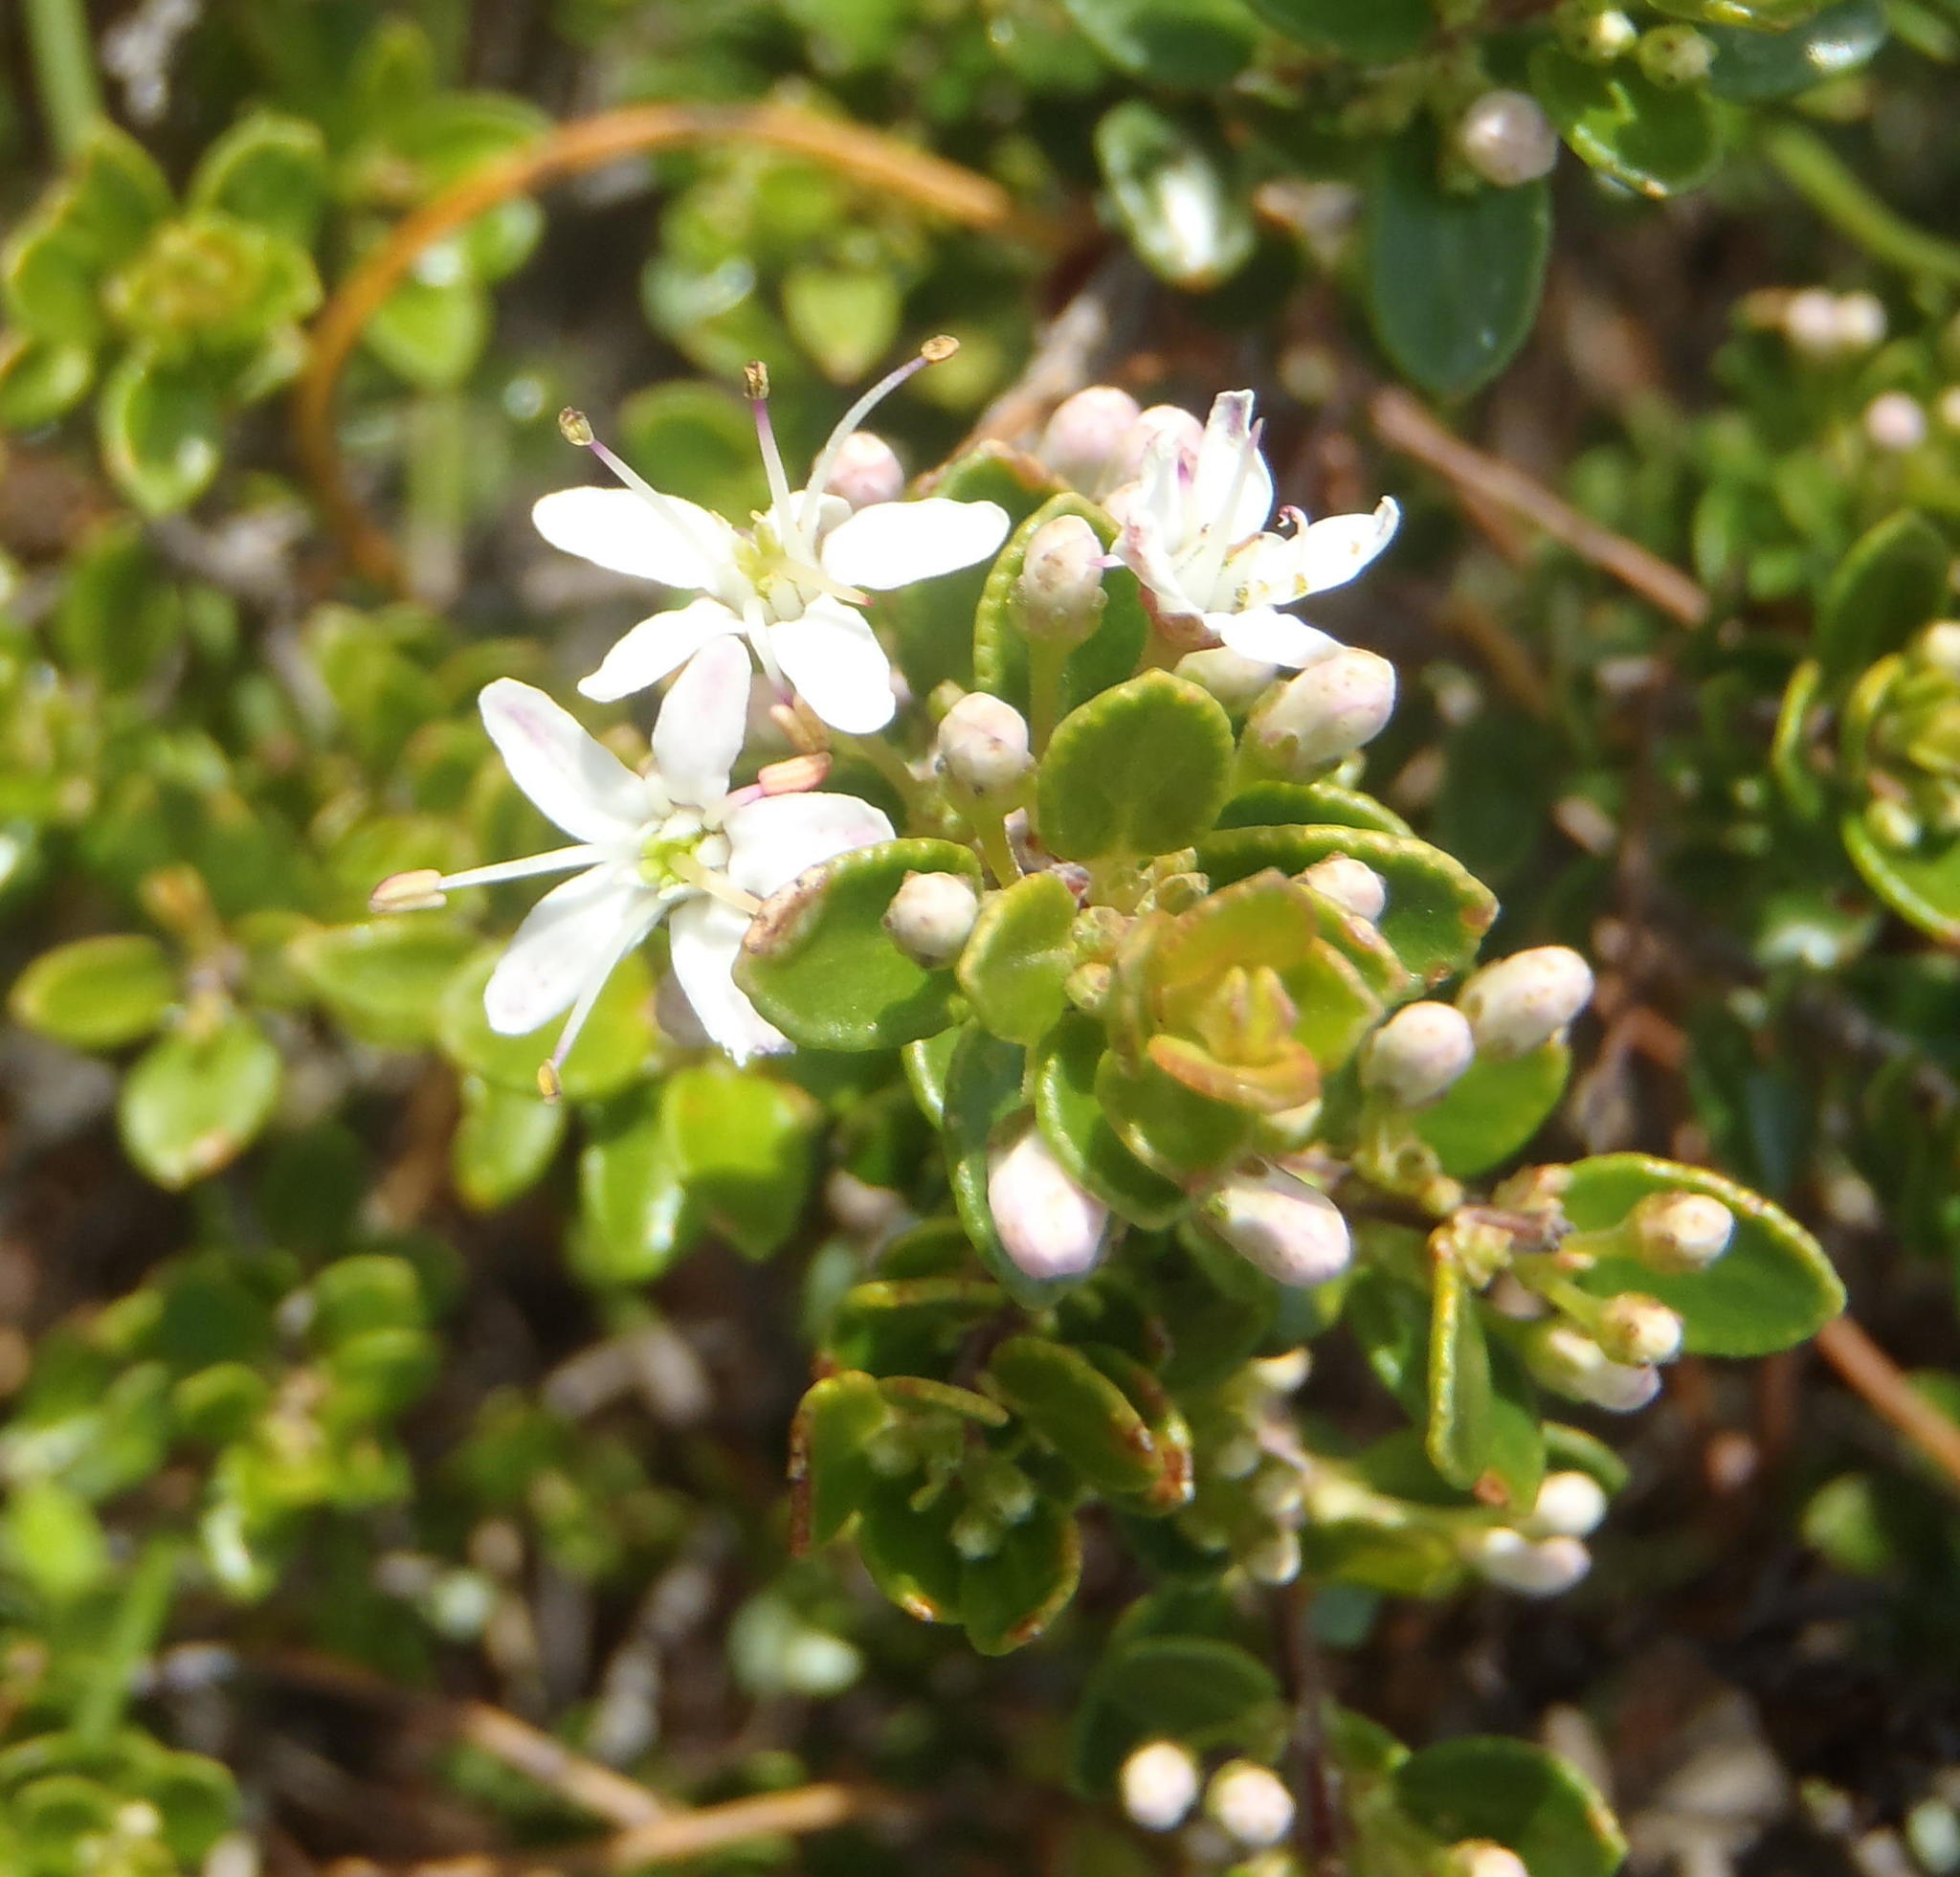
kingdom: Plantae
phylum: Tracheophyta
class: Magnoliopsida
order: Sapindales
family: Rutaceae
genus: Agathosma
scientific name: Agathosma ovata
